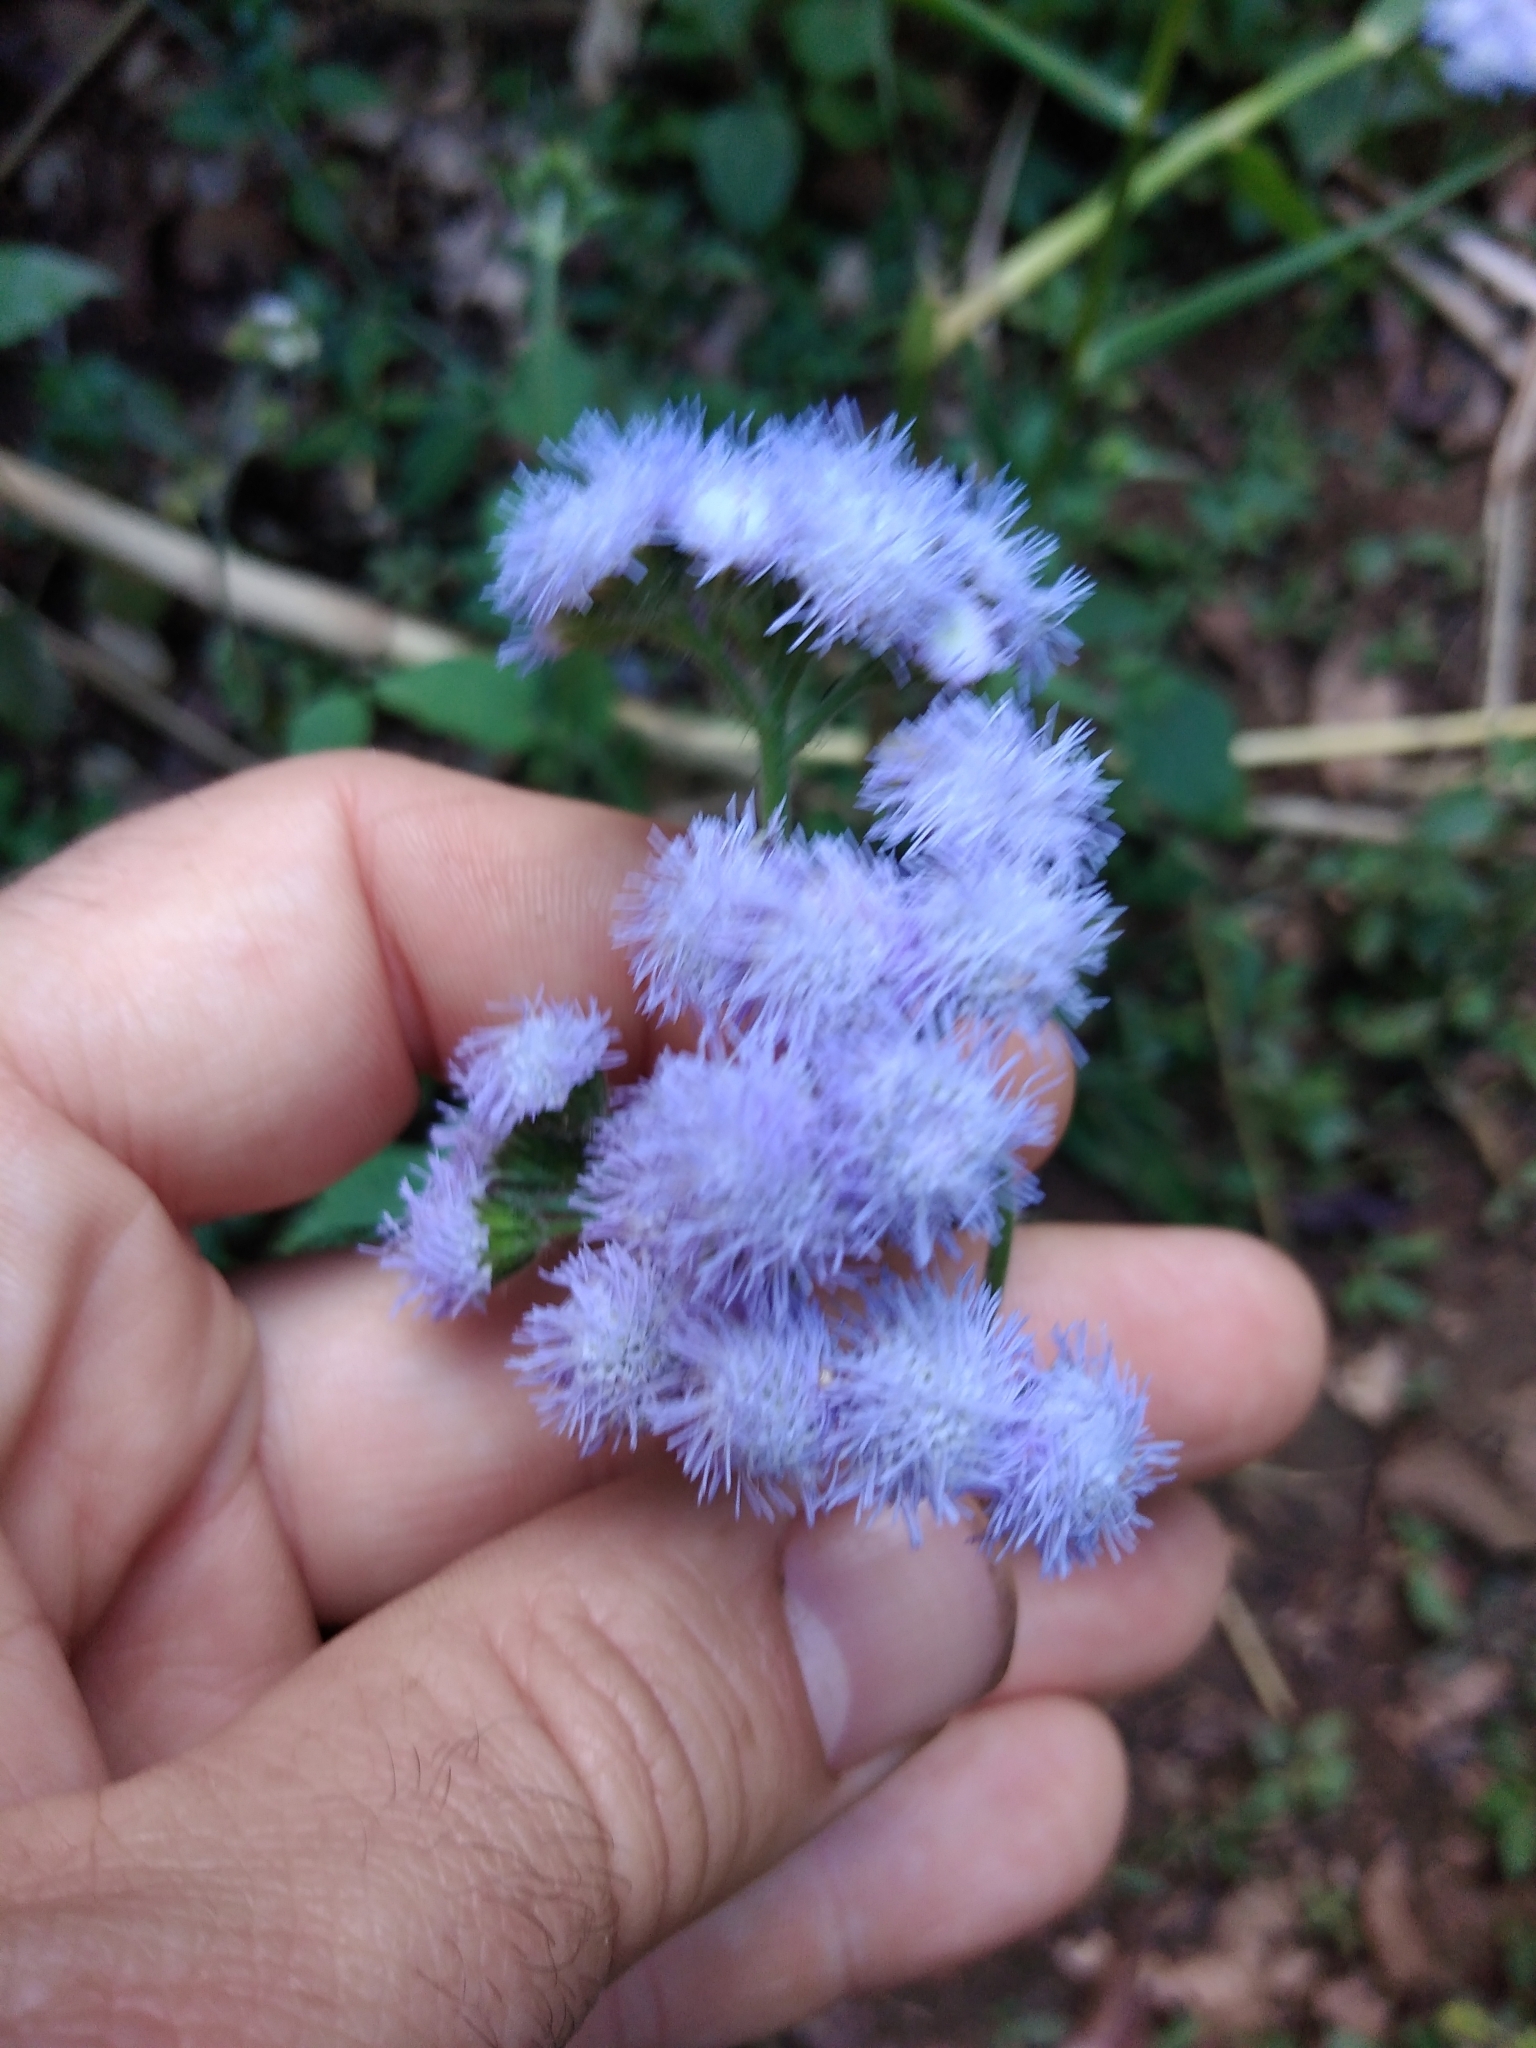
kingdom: Plantae
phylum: Tracheophyta
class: Magnoliopsida
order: Asterales
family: Asteraceae
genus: Ageratum
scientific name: Ageratum houstonianum
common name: Bluemink
